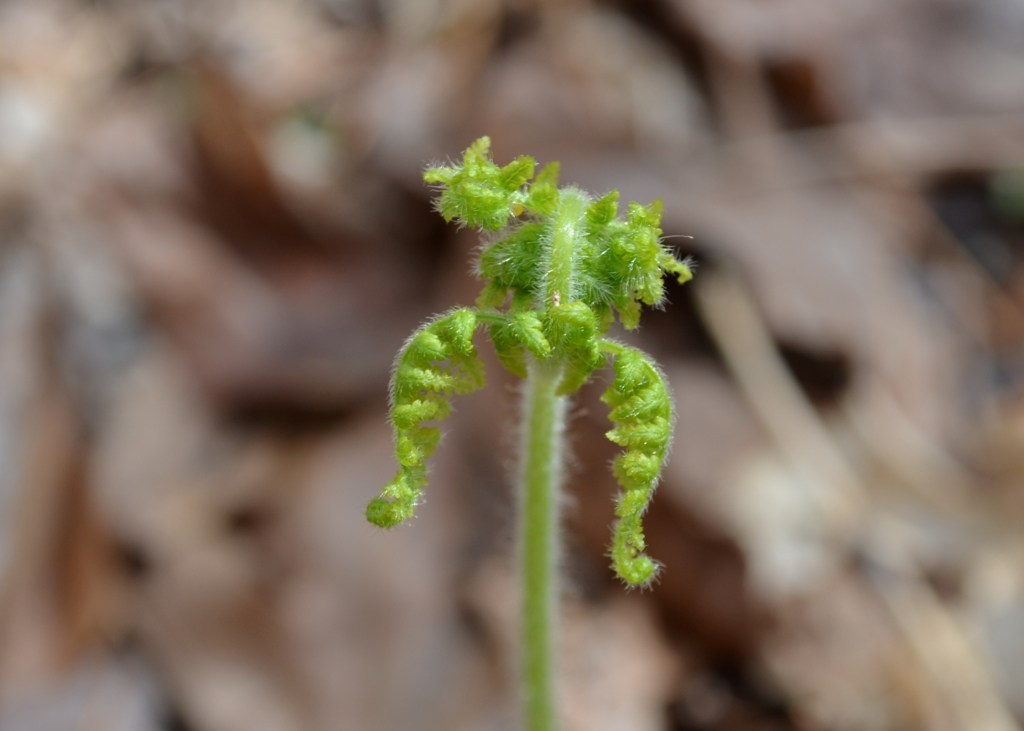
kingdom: Plantae
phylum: Tracheophyta
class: Polypodiopsida
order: Polypodiales
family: Dennstaedtiaceae
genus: Sitobolium
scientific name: Sitobolium punctilobum
